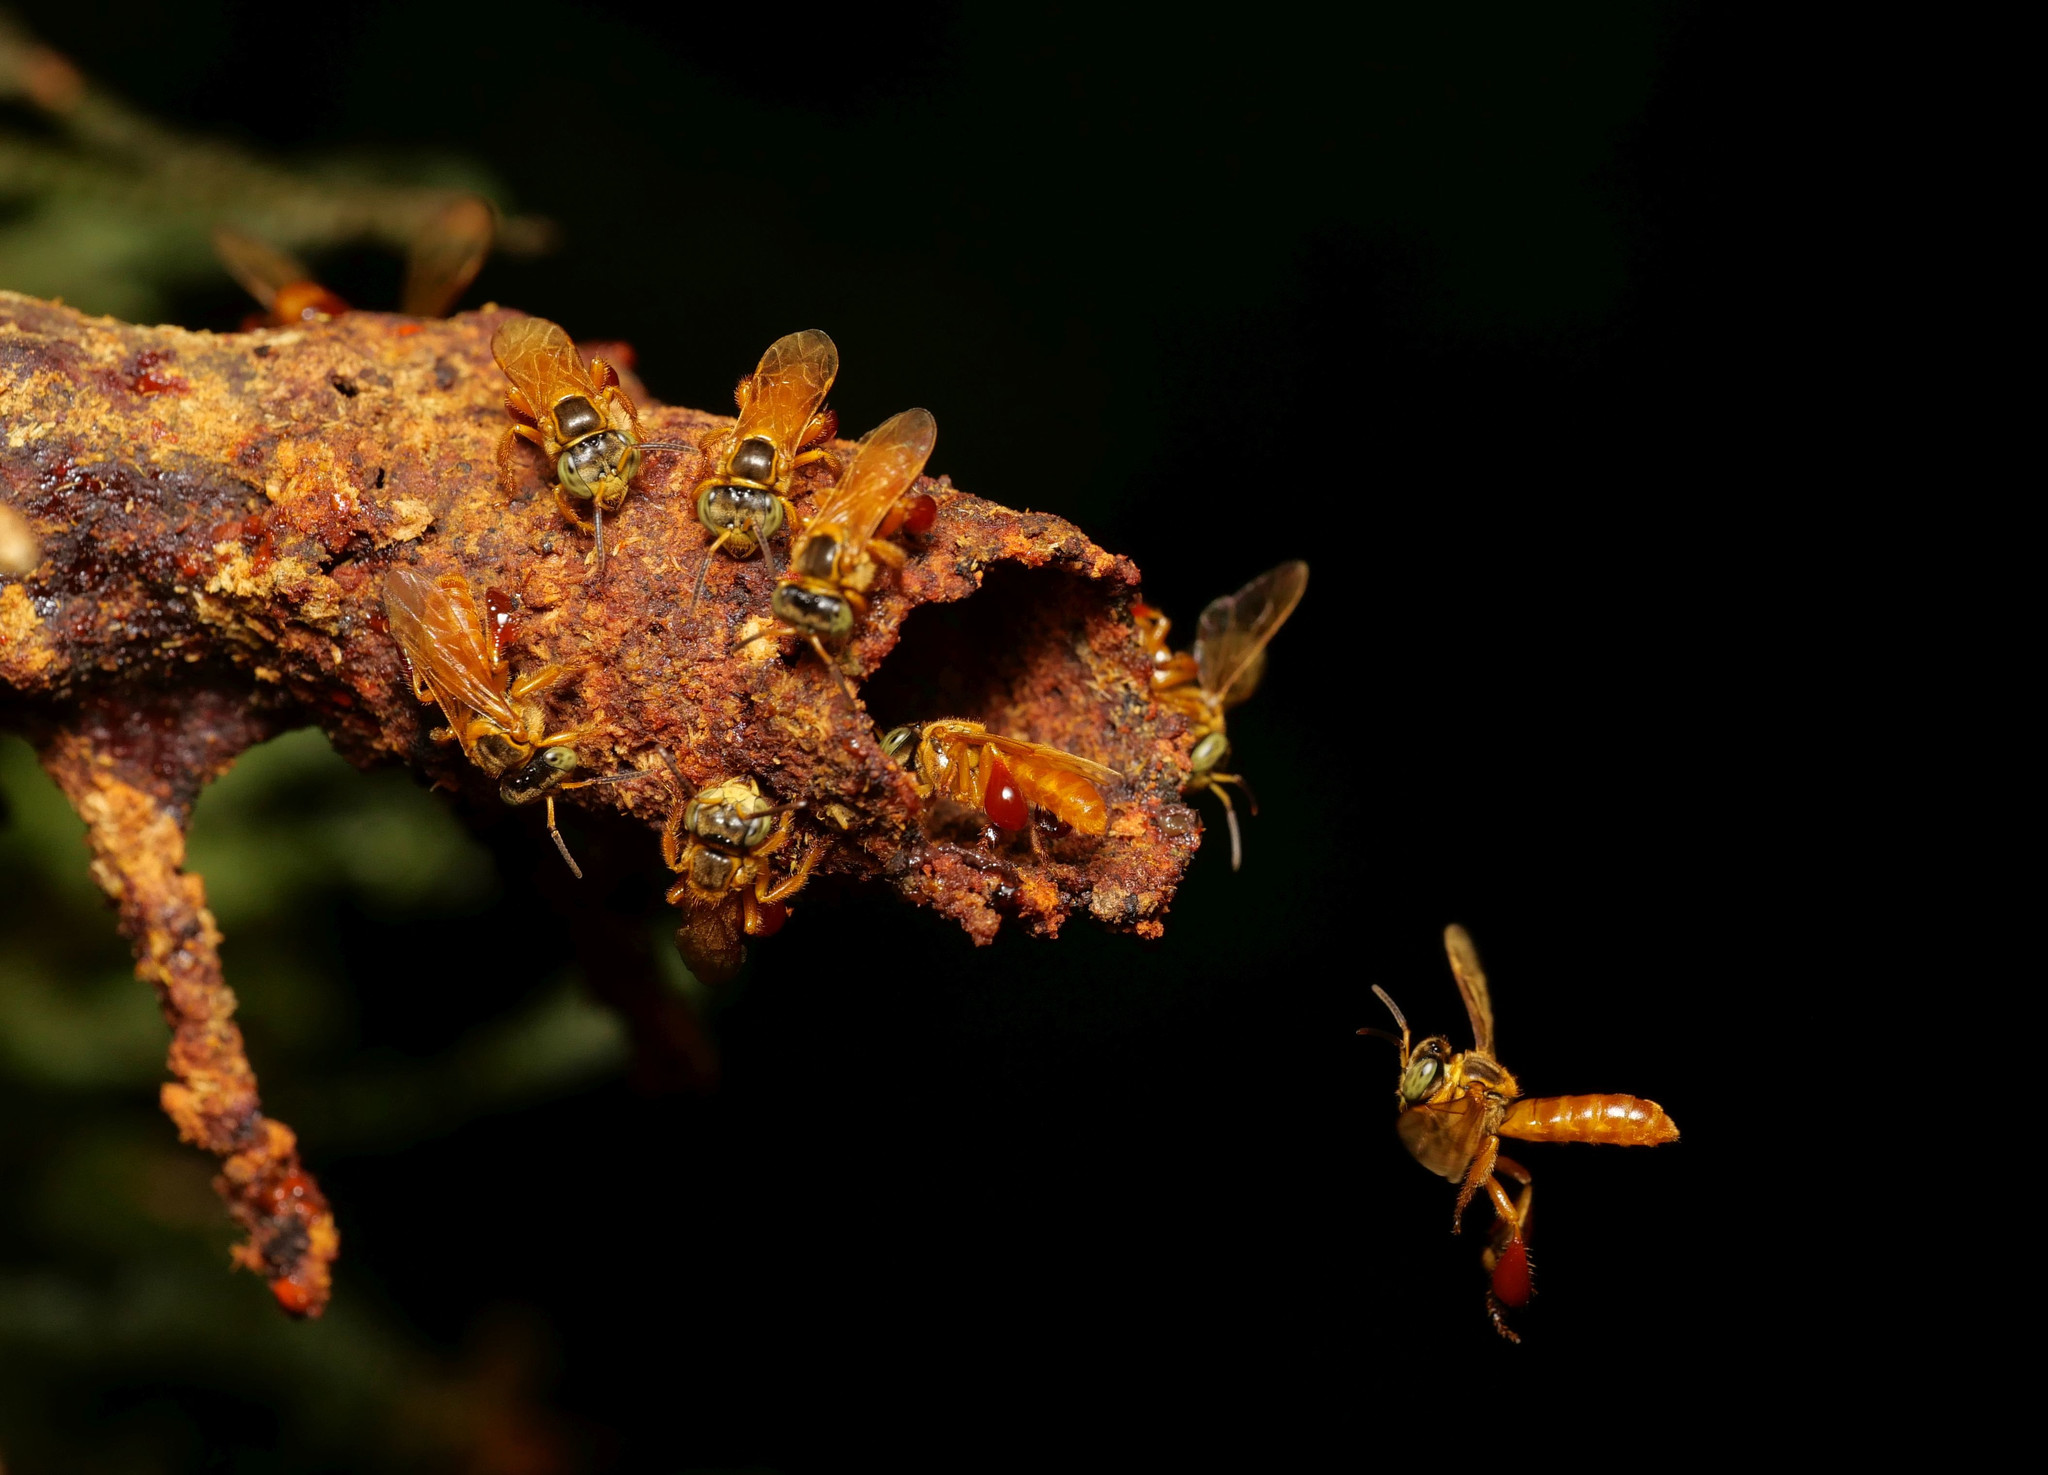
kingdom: Animalia
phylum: Arthropoda
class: Insecta
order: Hymenoptera
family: Apidae
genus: Tetragona
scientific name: Tetragona ziegleri
